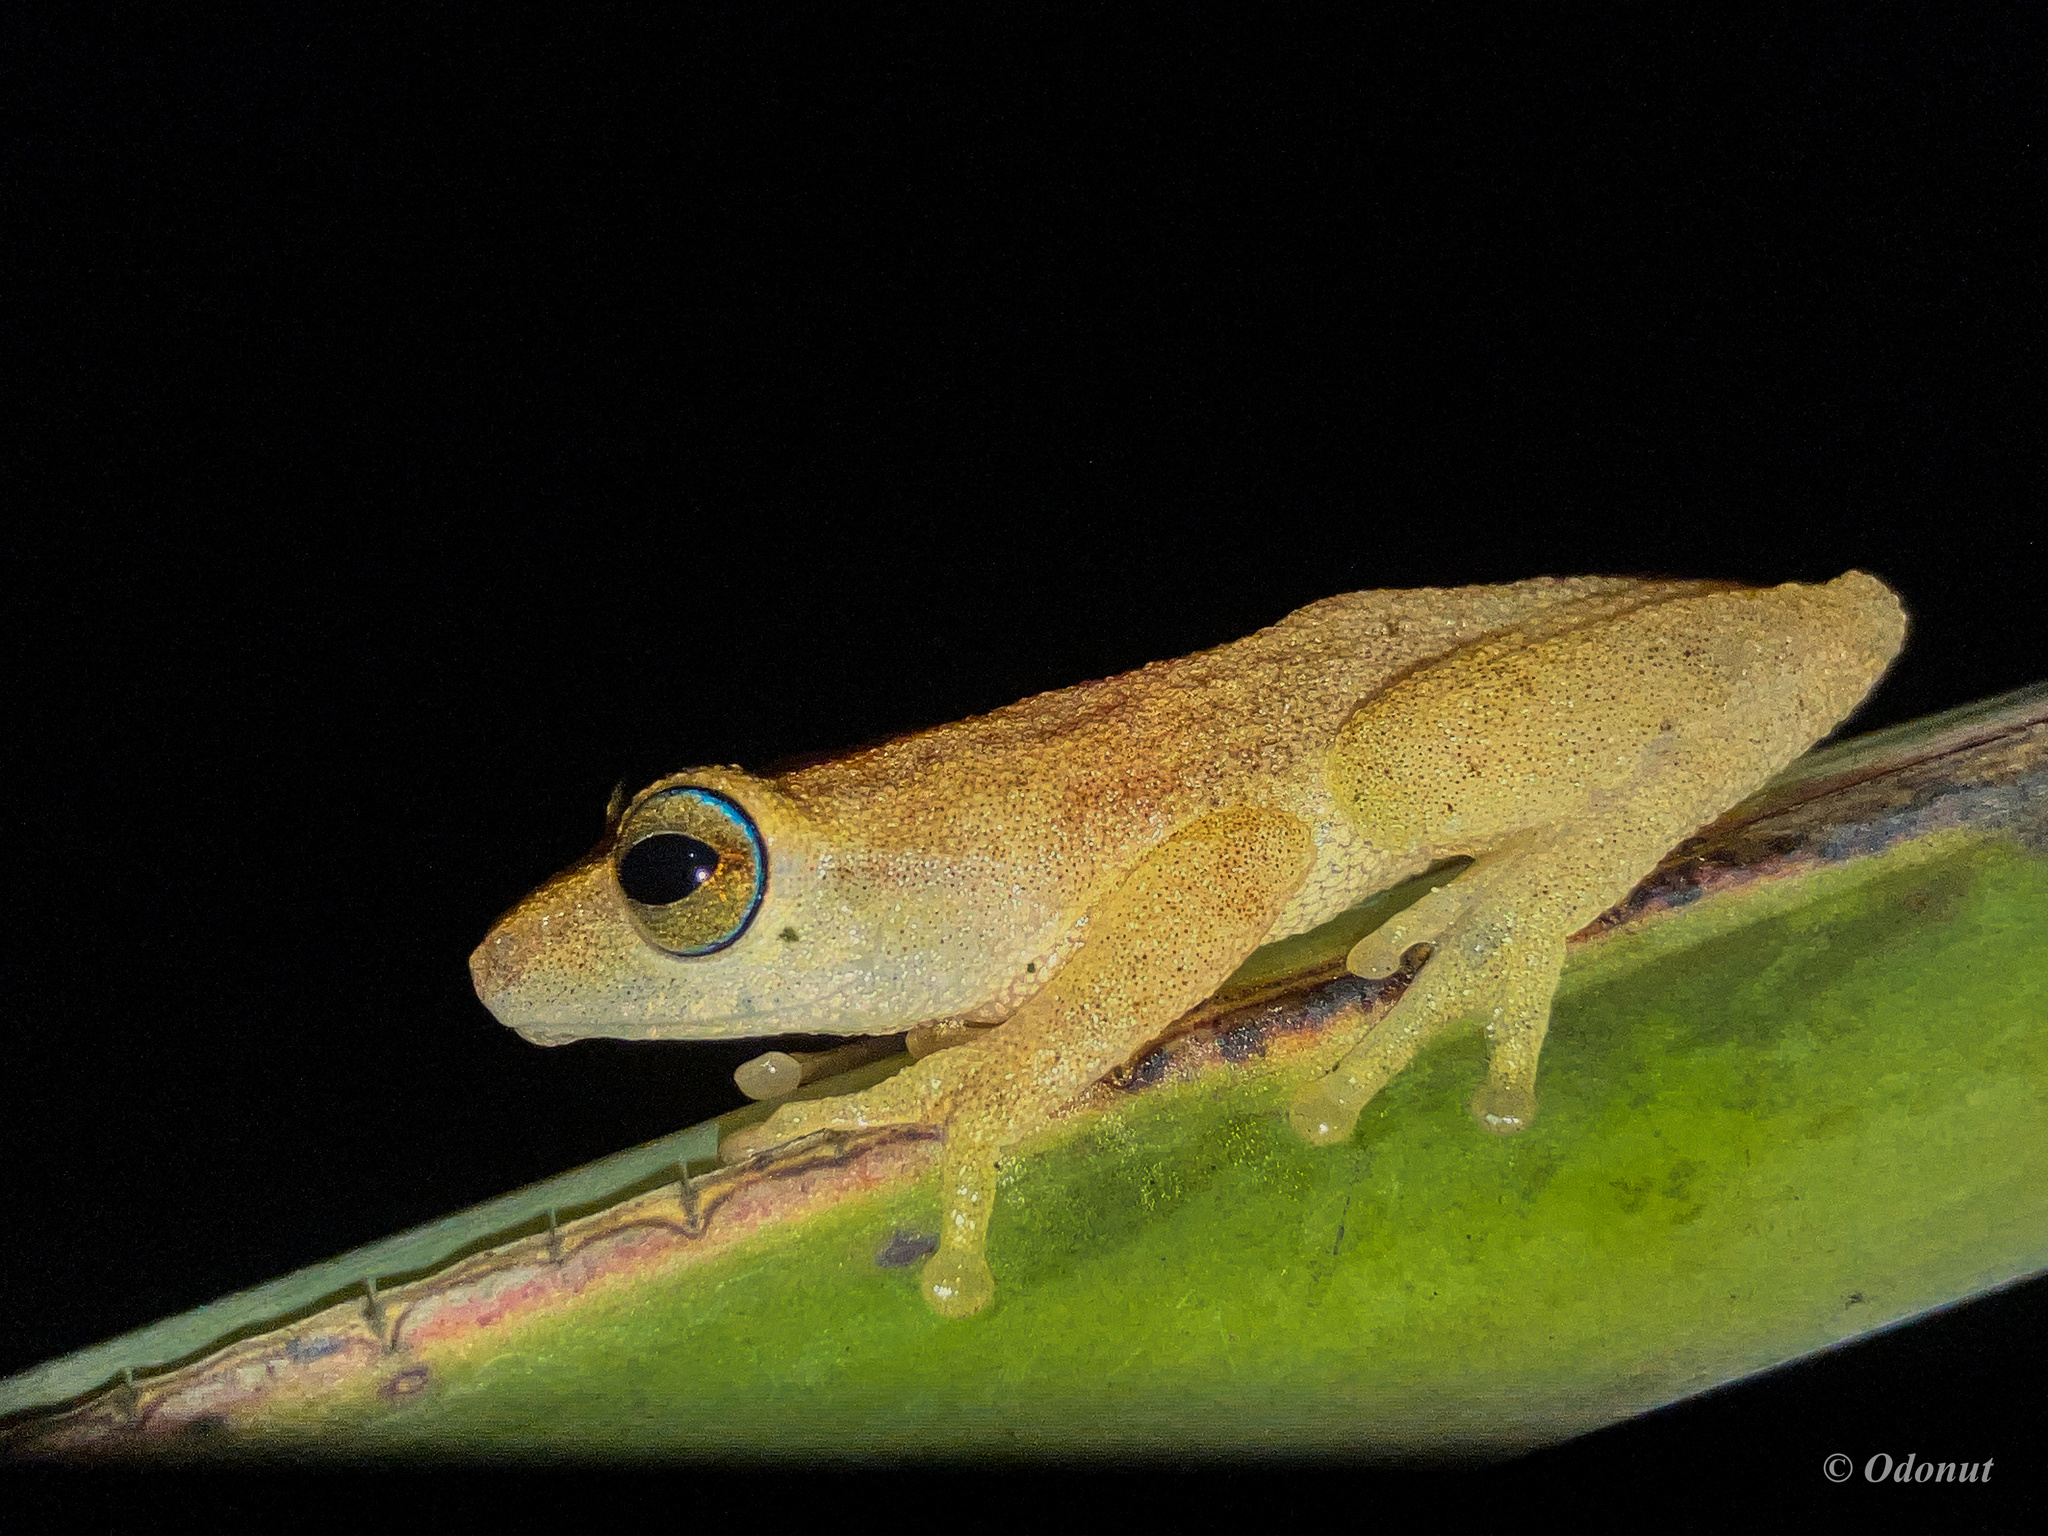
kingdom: Animalia
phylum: Chordata
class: Amphibia
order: Anura
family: Rhacophoridae
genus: Raorchestes
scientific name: Raorchestes luteolus
